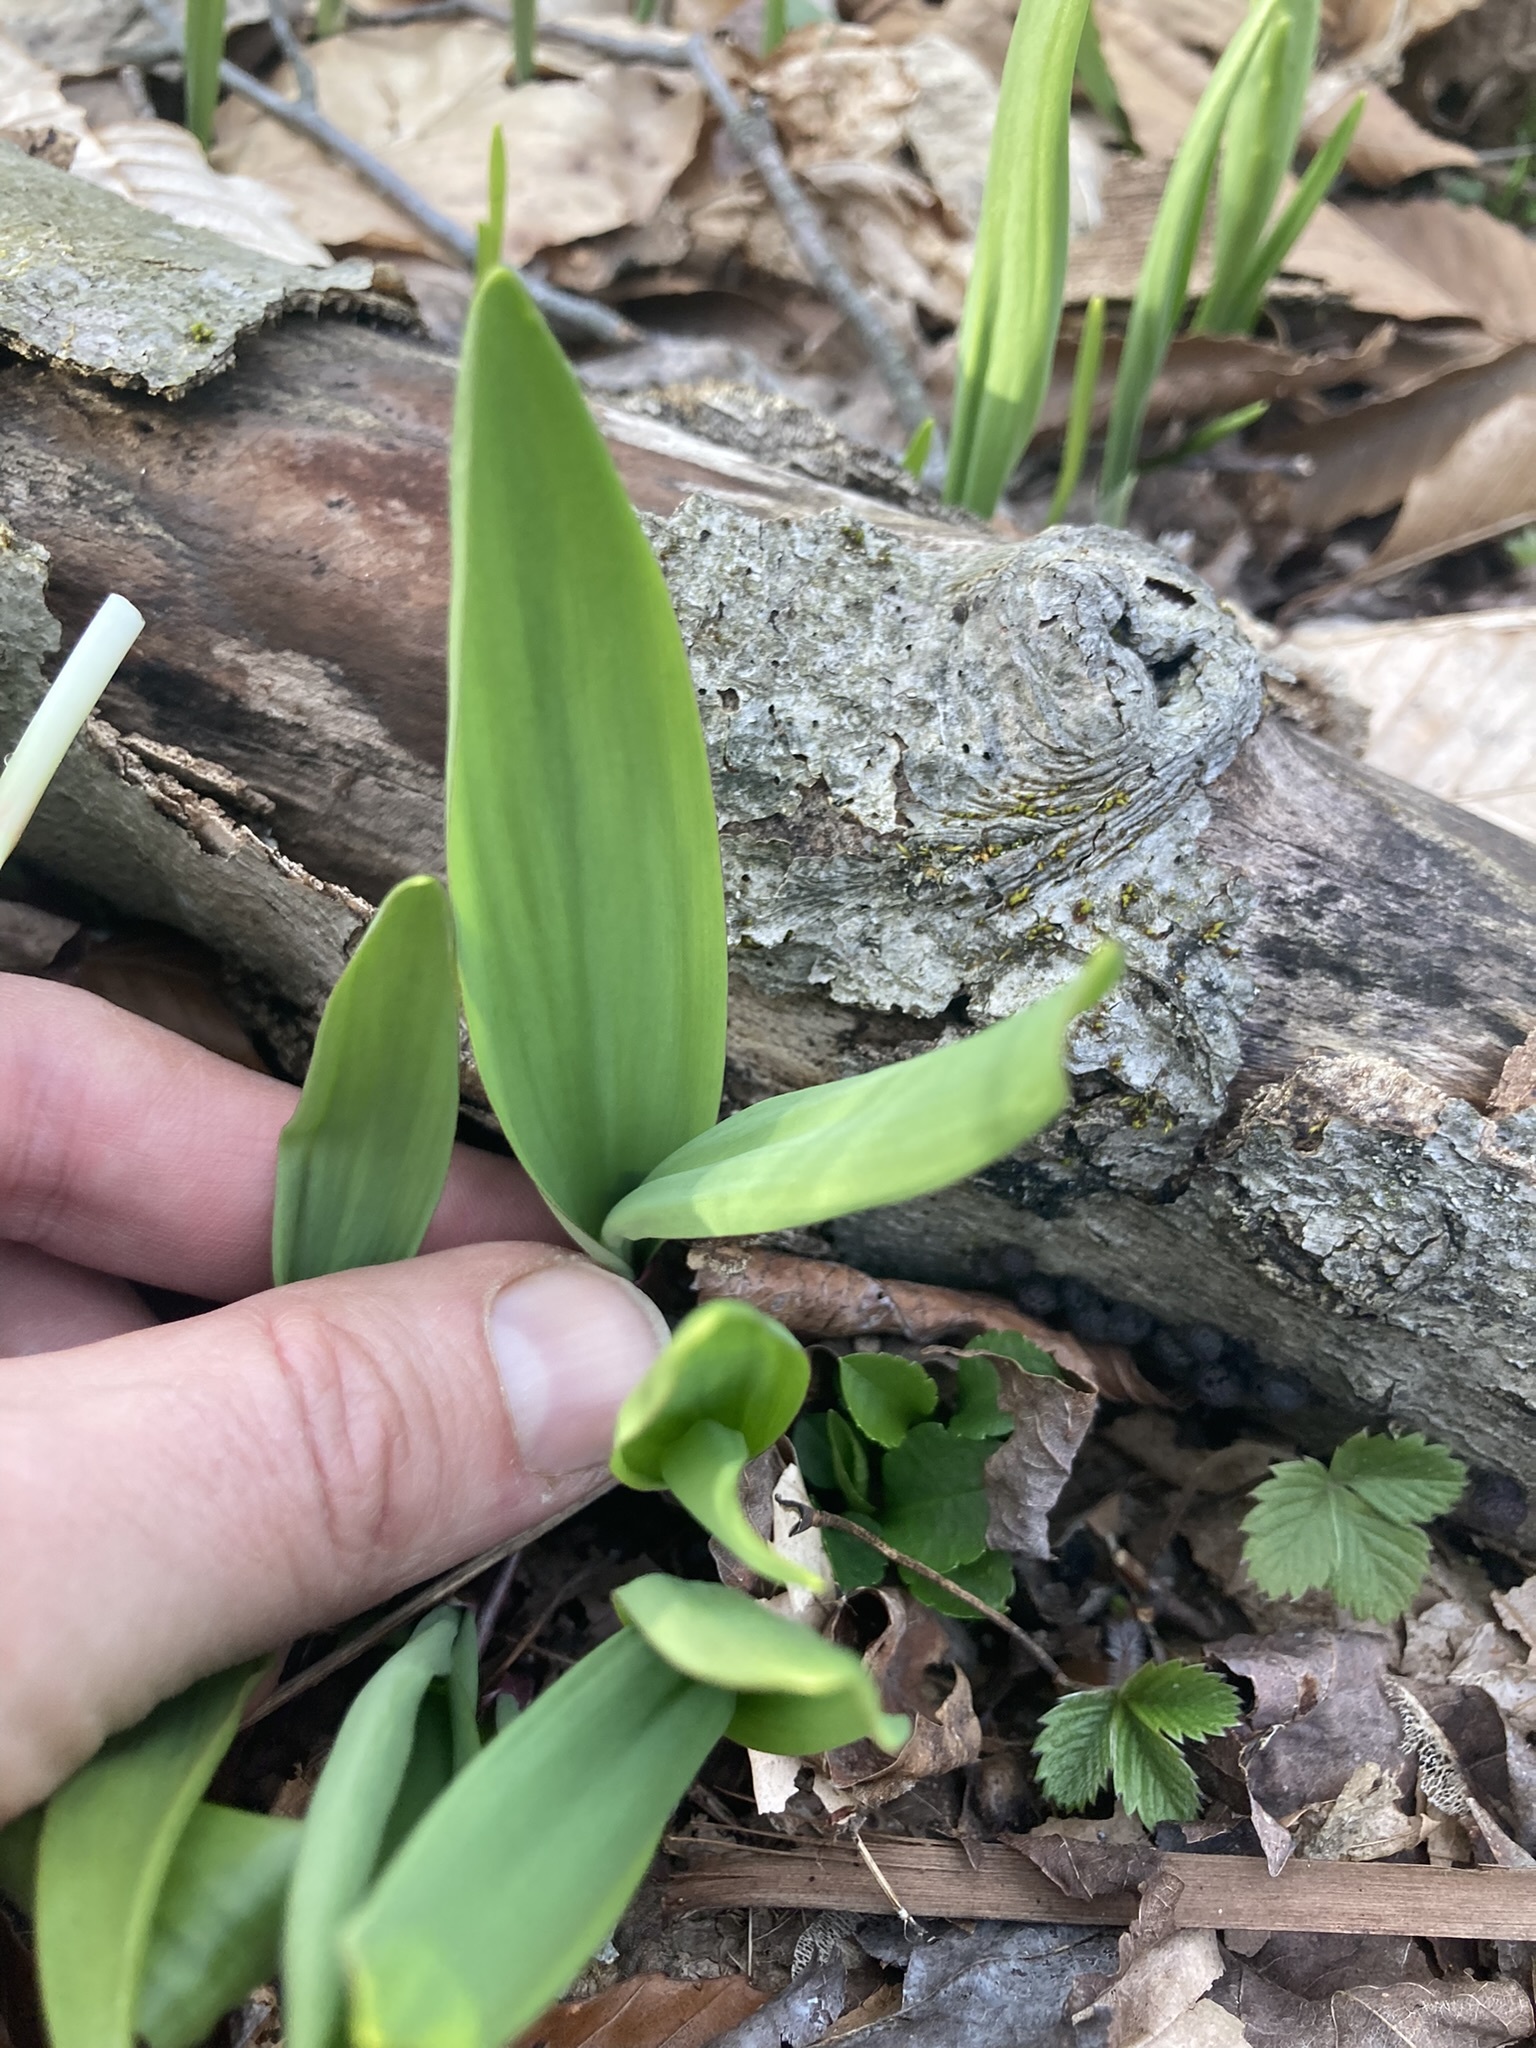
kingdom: Plantae
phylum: Tracheophyta
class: Liliopsida
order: Asparagales
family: Amaryllidaceae
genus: Allium
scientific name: Allium tricoccum
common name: Ramp
